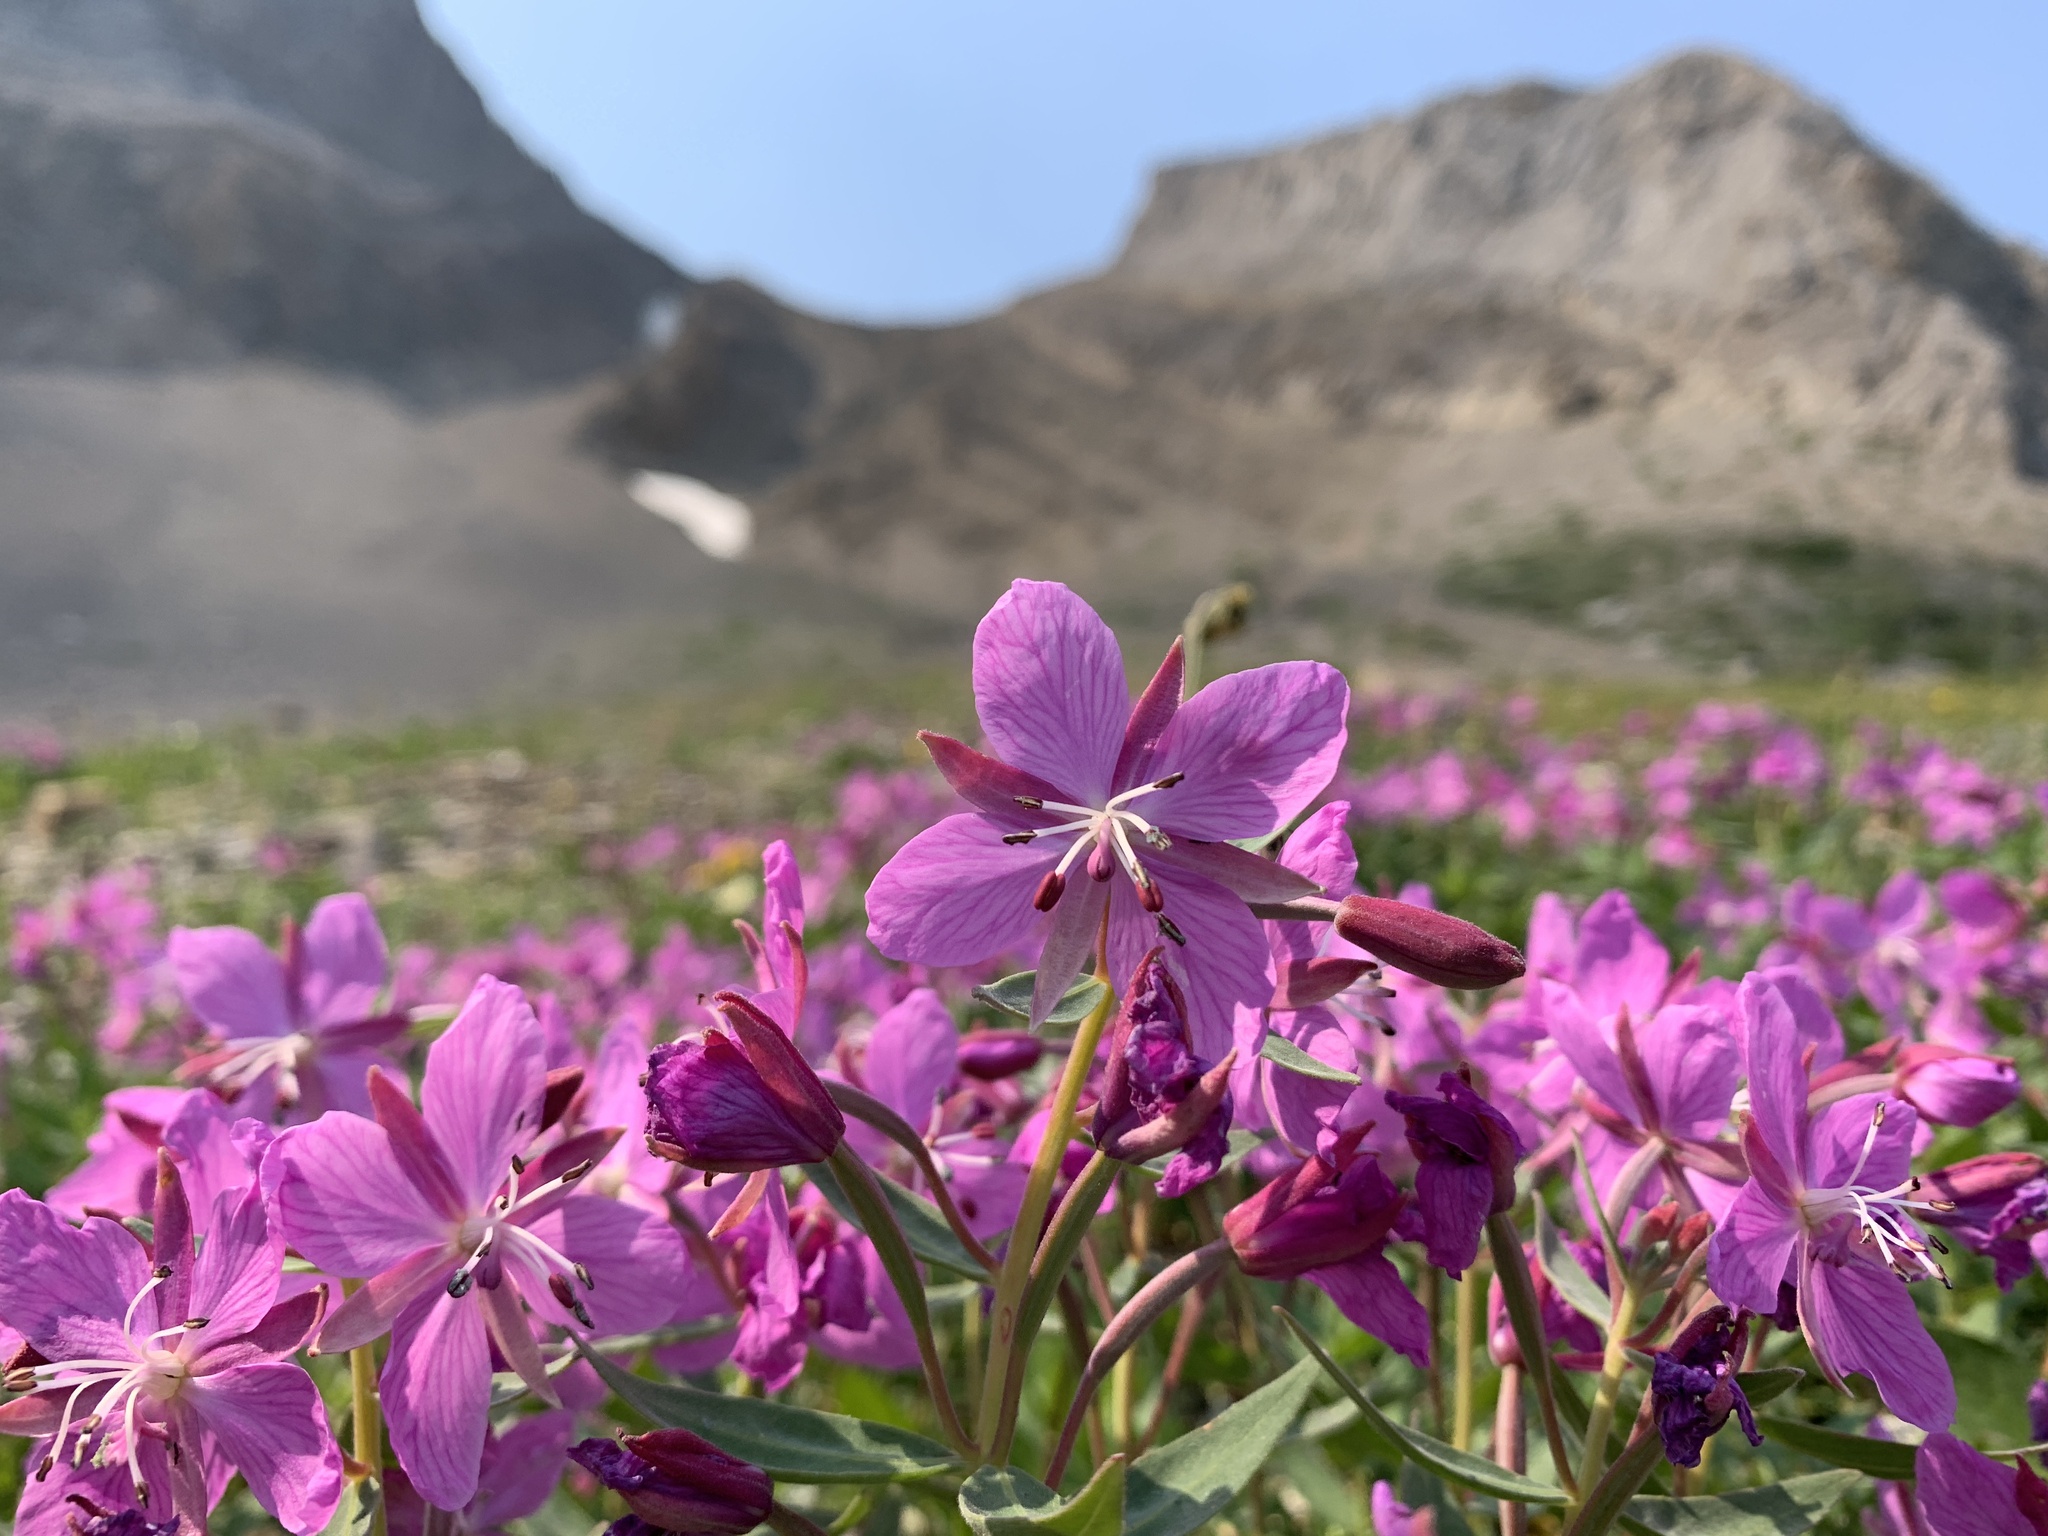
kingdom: Plantae
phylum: Tracheophyta
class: Magnoliopsida
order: Myrtales
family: Onagraceae
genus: Chamaenerion
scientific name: Chamaenerion latifolium
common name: Dwarf fireweed
